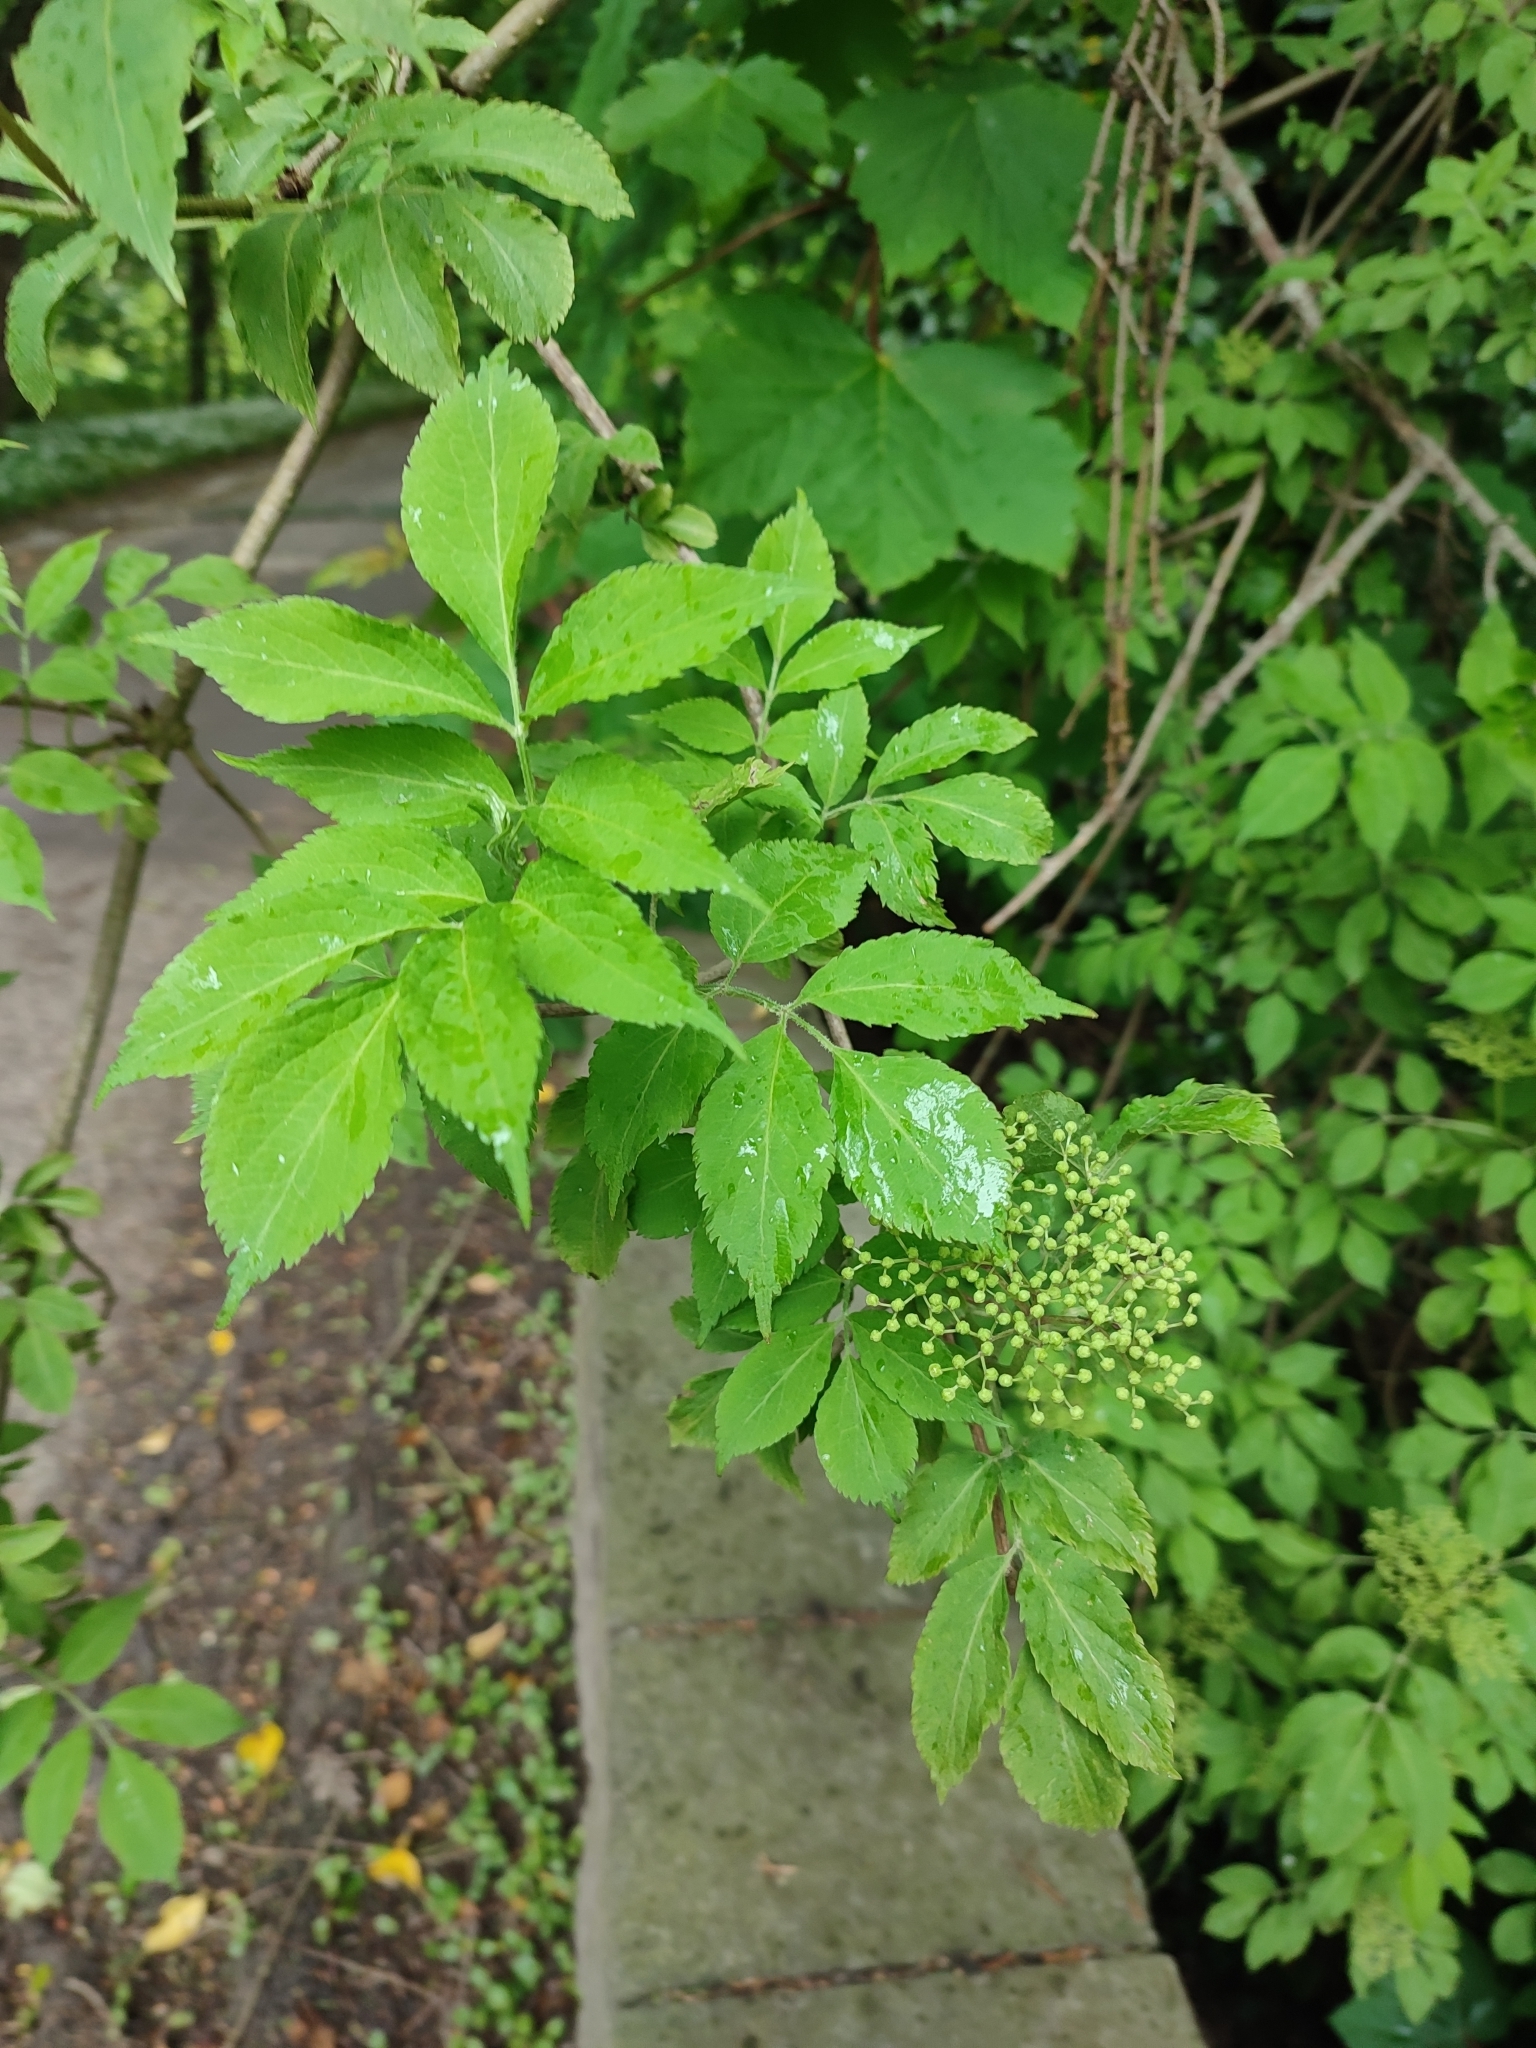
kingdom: Plantae
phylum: Tracheophyta
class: Magnoliopsida
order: Dipsacales
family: Viburnaceae
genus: Sambucus
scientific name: Sambucus nigra
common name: Elder
